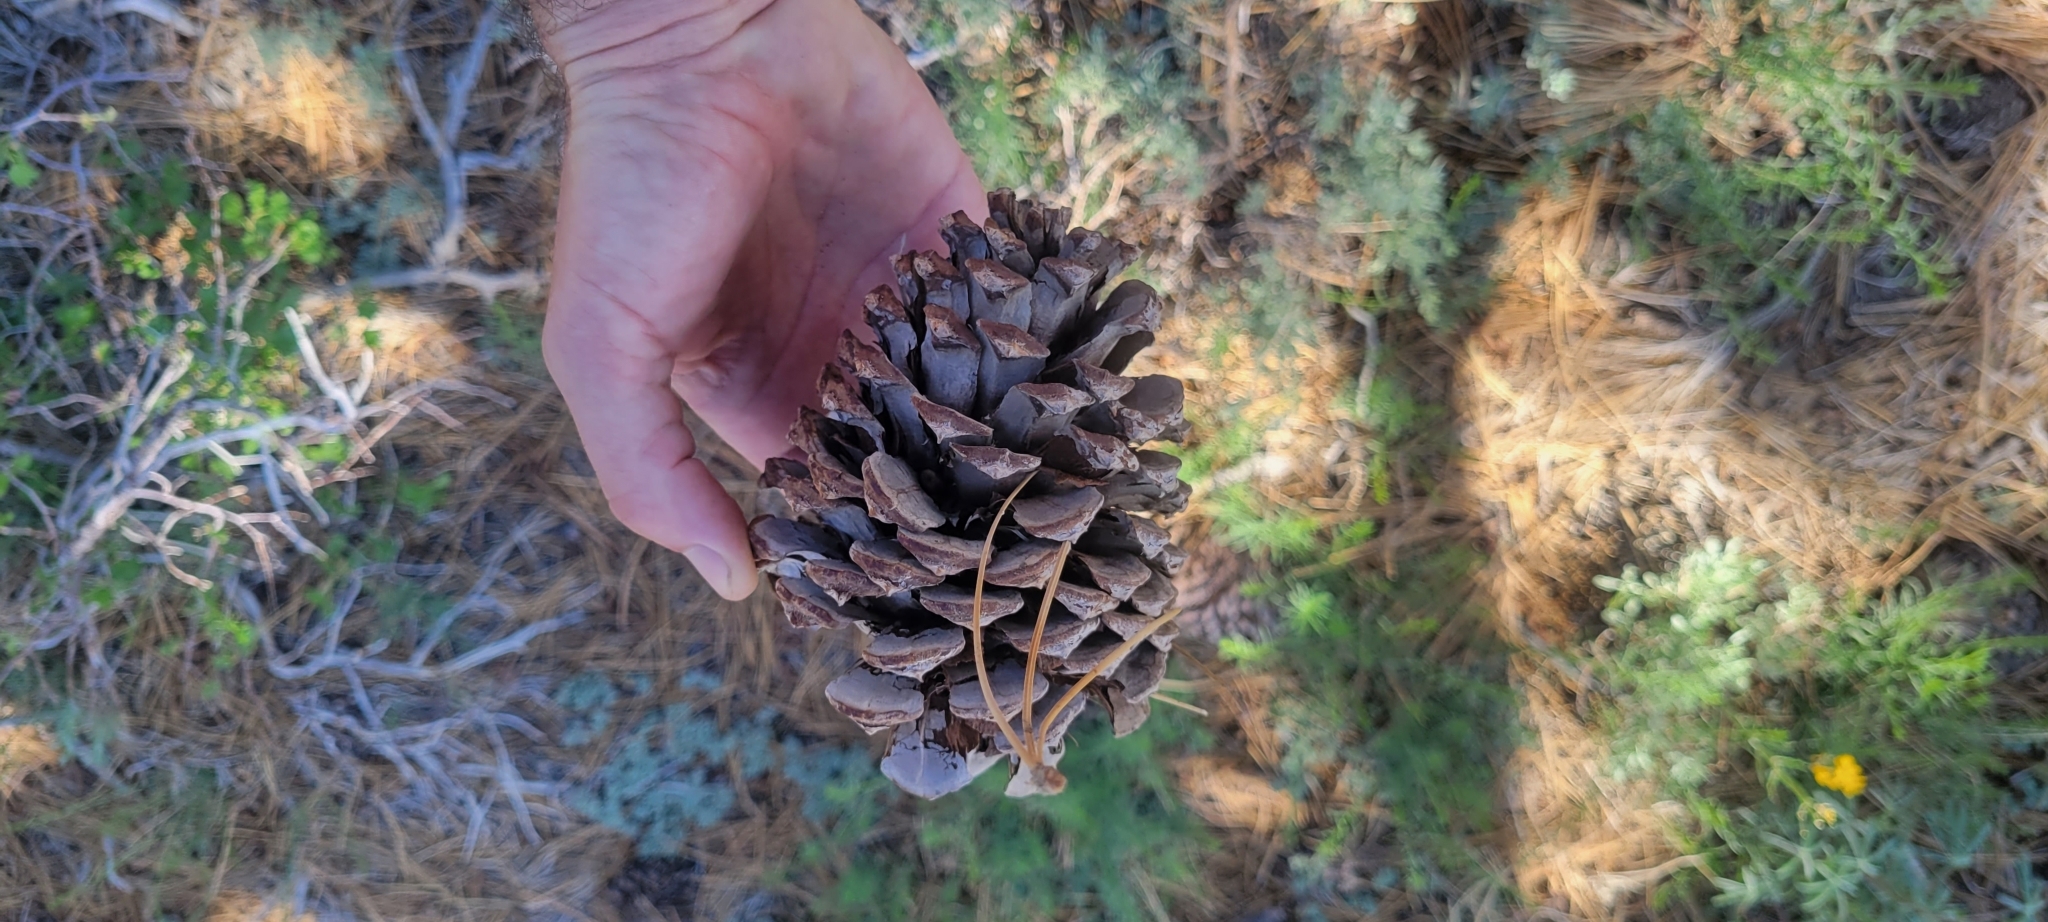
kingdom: Plantae
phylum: Tracheophyta
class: Pinopsida
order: Pinales
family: Pinaceae
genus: Pinus
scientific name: Pinus jeffreyi
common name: Jeffrey pine
